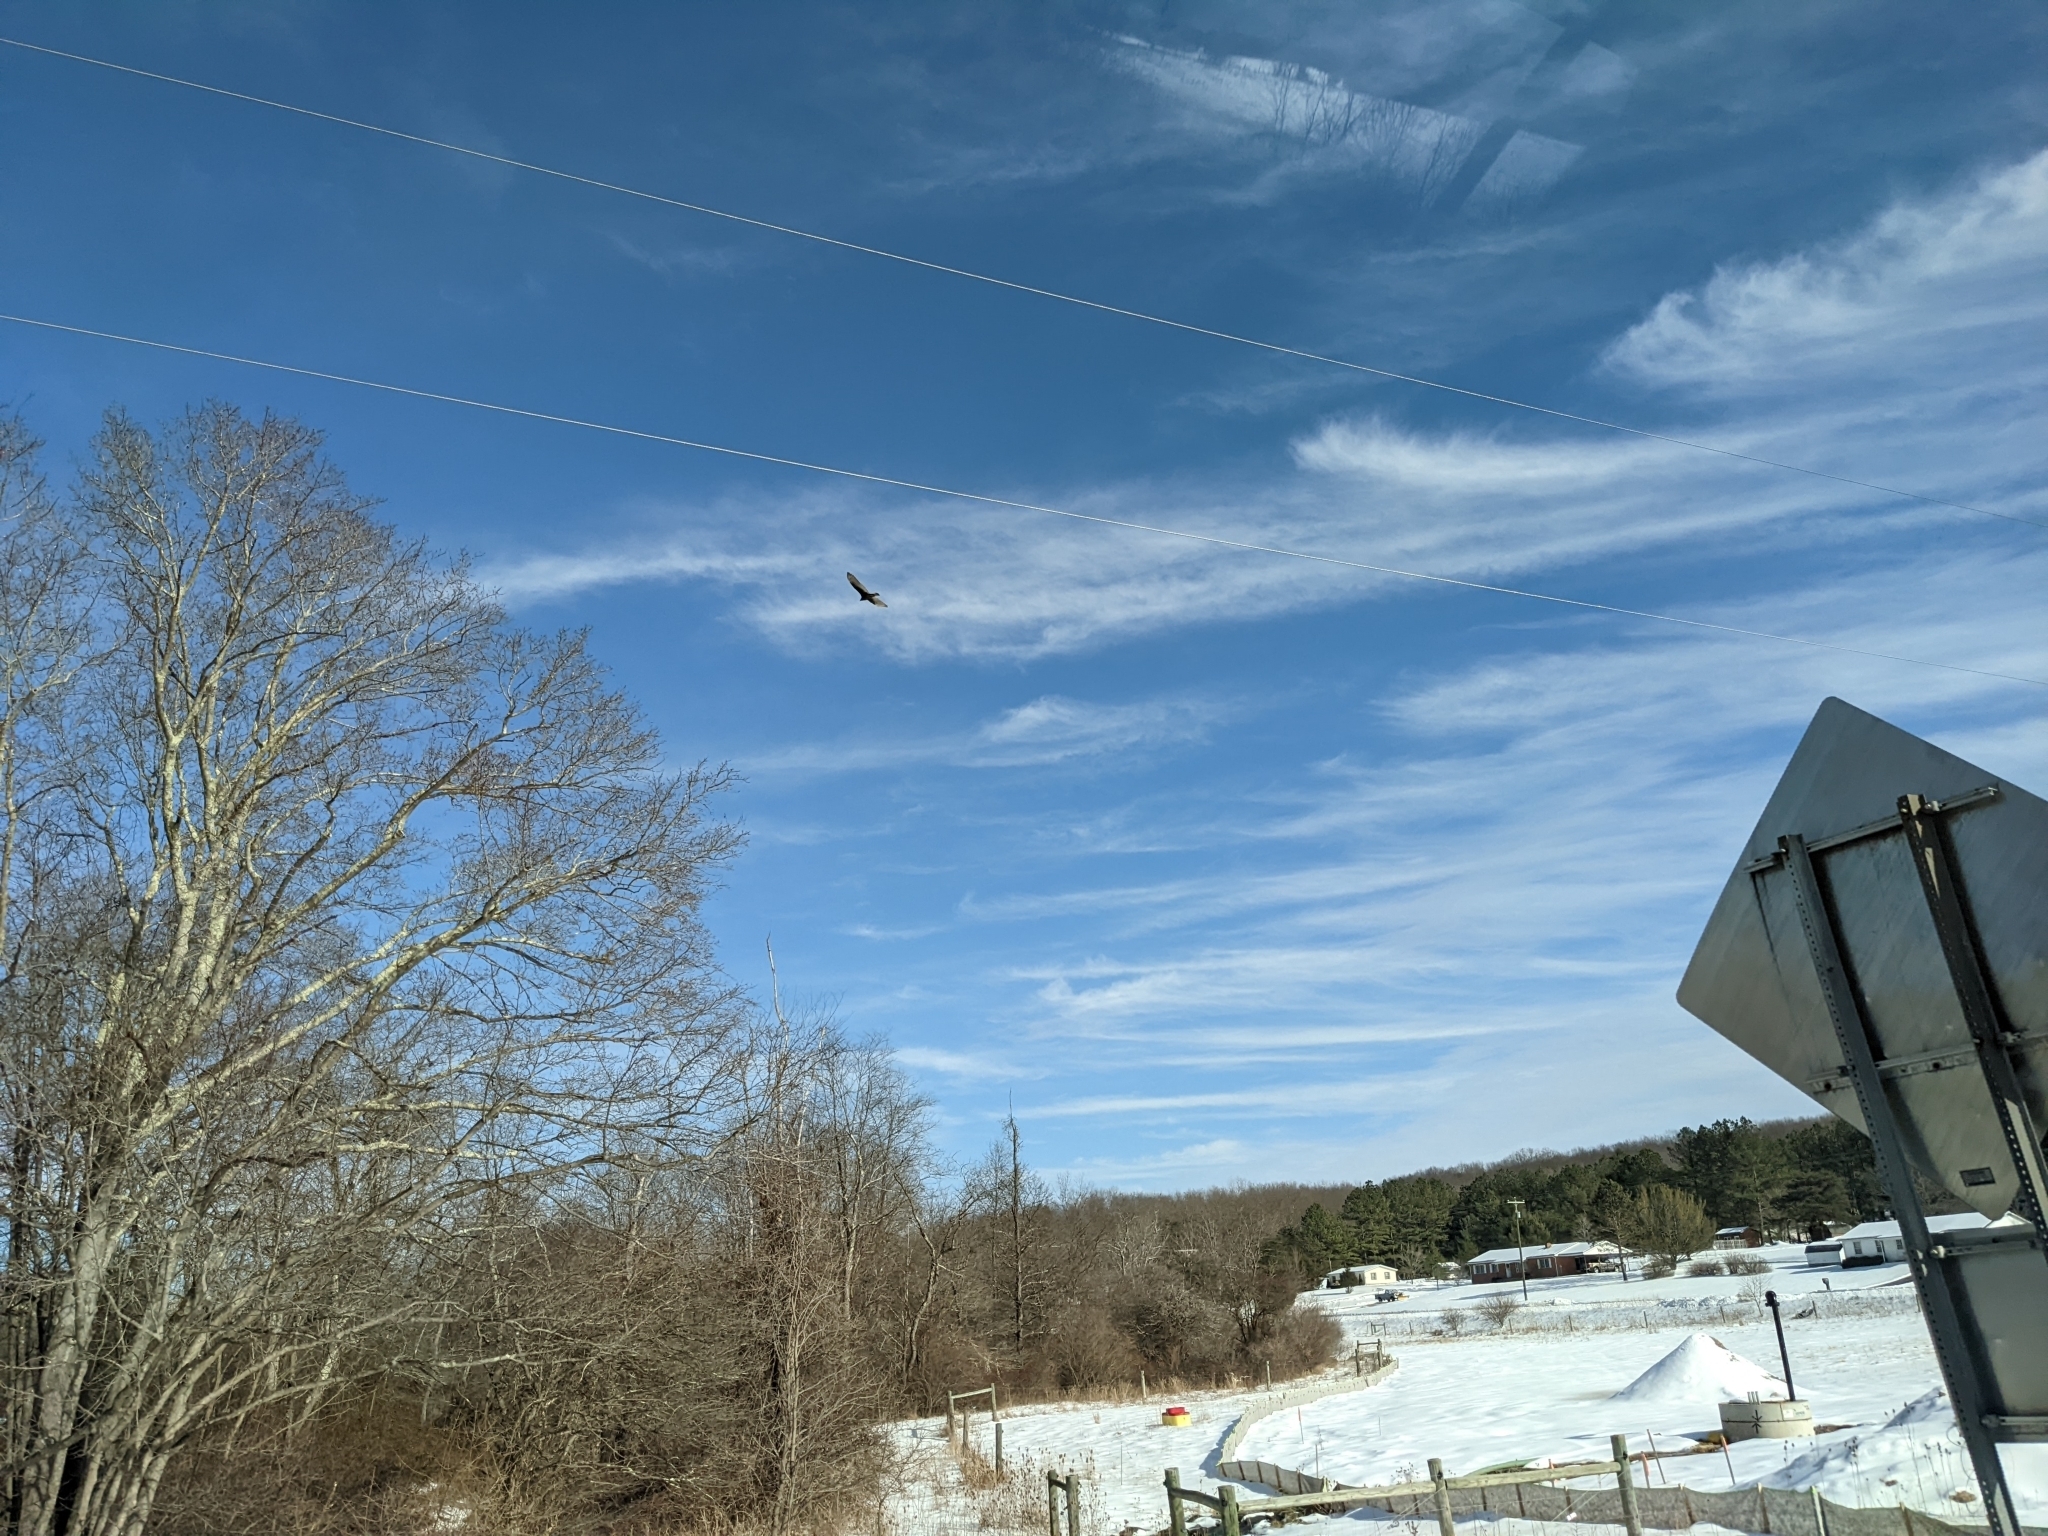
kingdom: Animalia
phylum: Chordata
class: Aves
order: Accipitriformes
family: Cathartidae
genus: Cathartes
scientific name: Cathartes aura
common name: Turkey vulture
